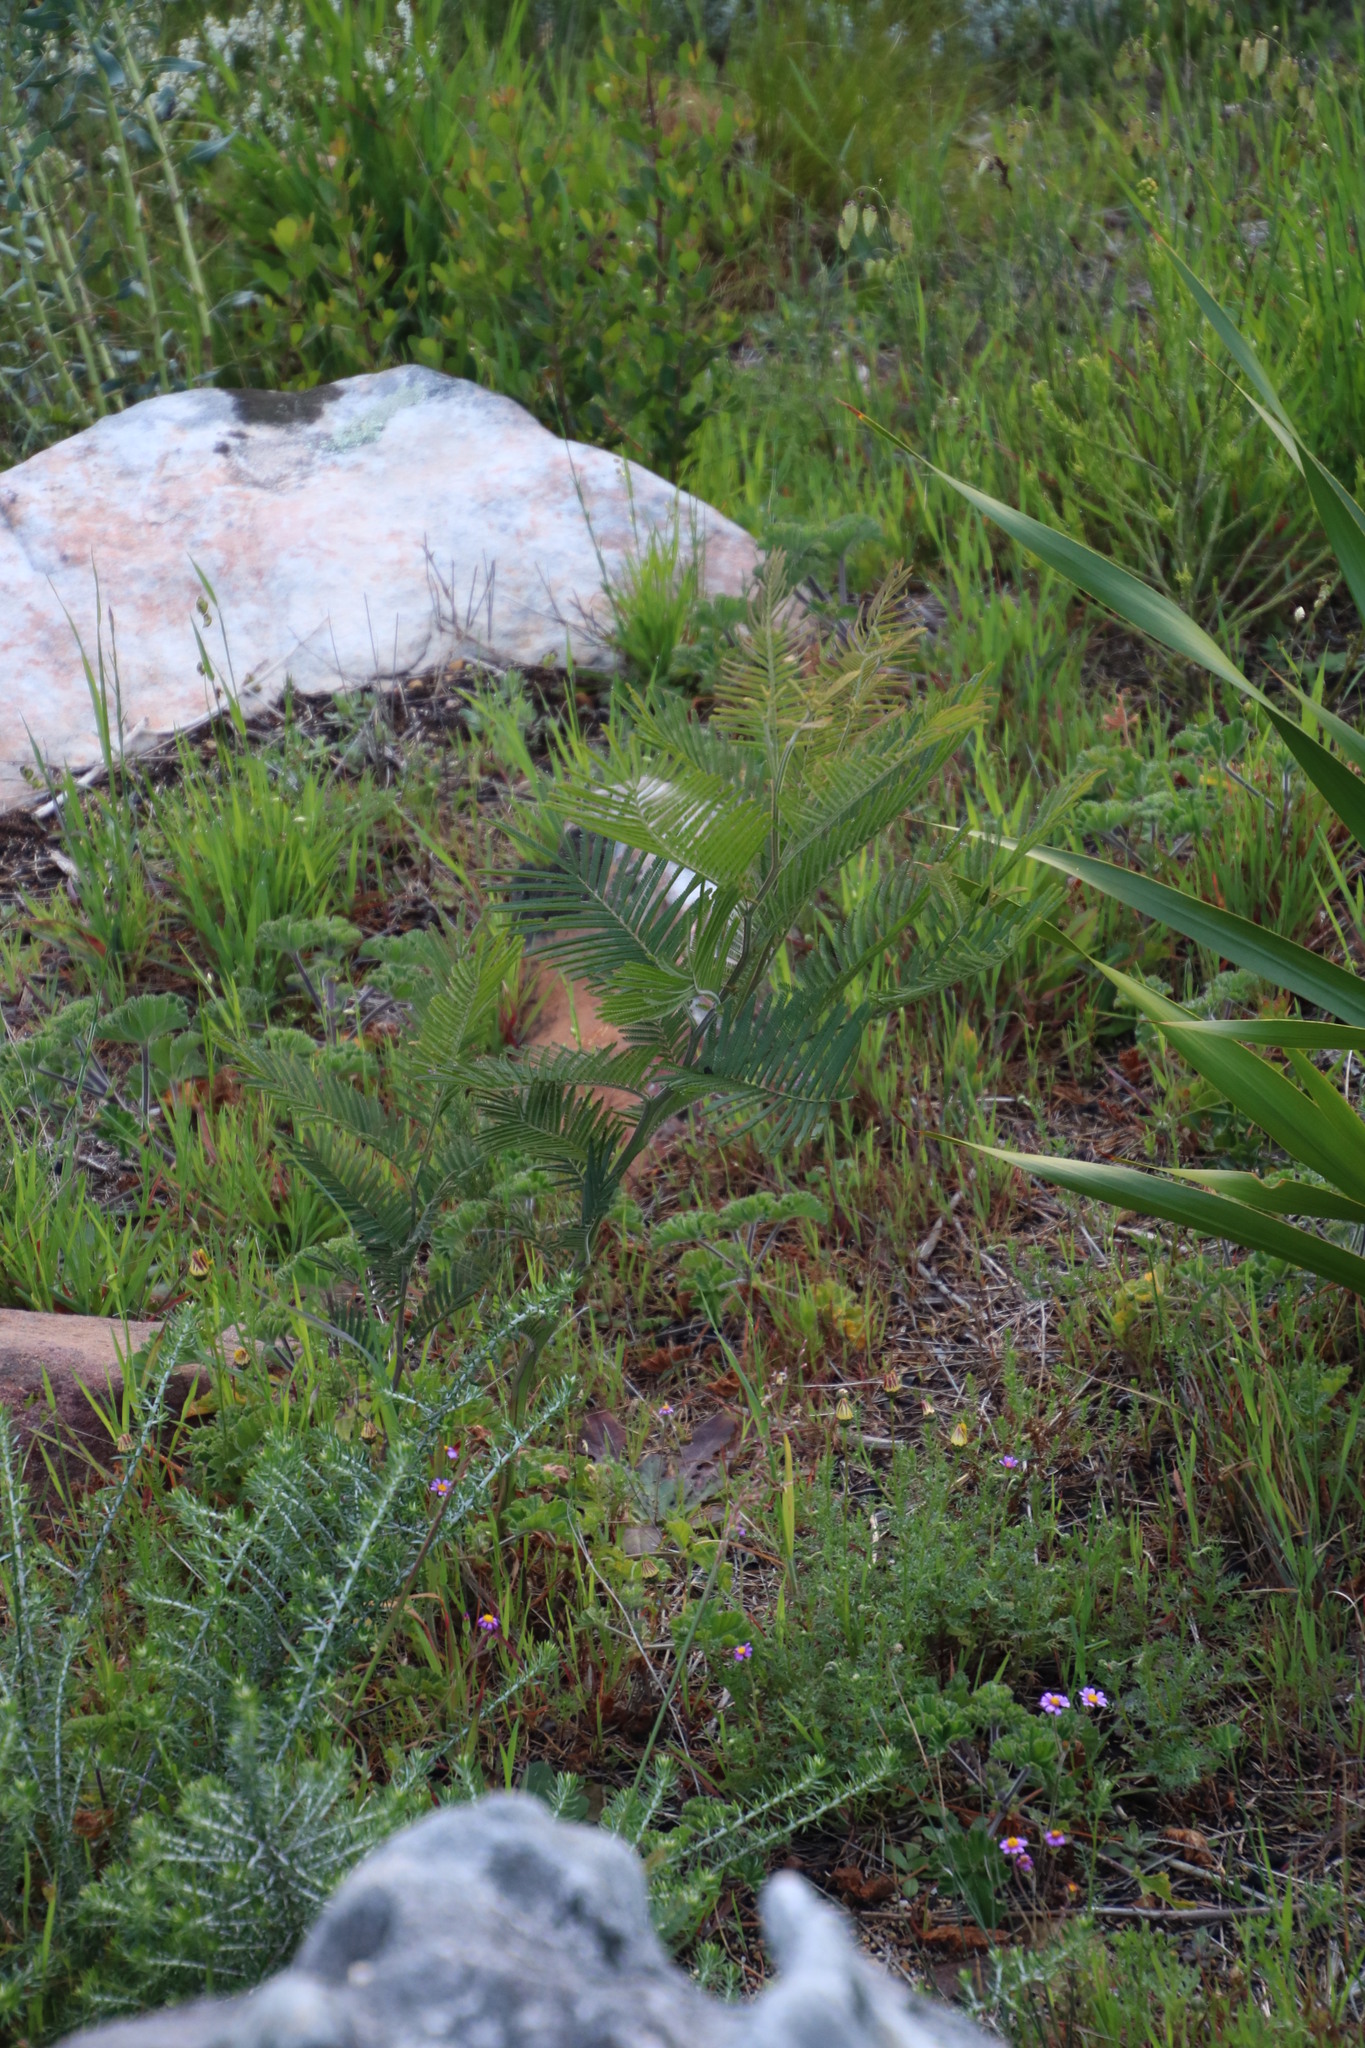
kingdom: Plantae
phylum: Tracheophyta
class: Magnoliopsida
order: Fabales
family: Fabaceae
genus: Acacia
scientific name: Acacia mearnsii
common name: Black wattle
